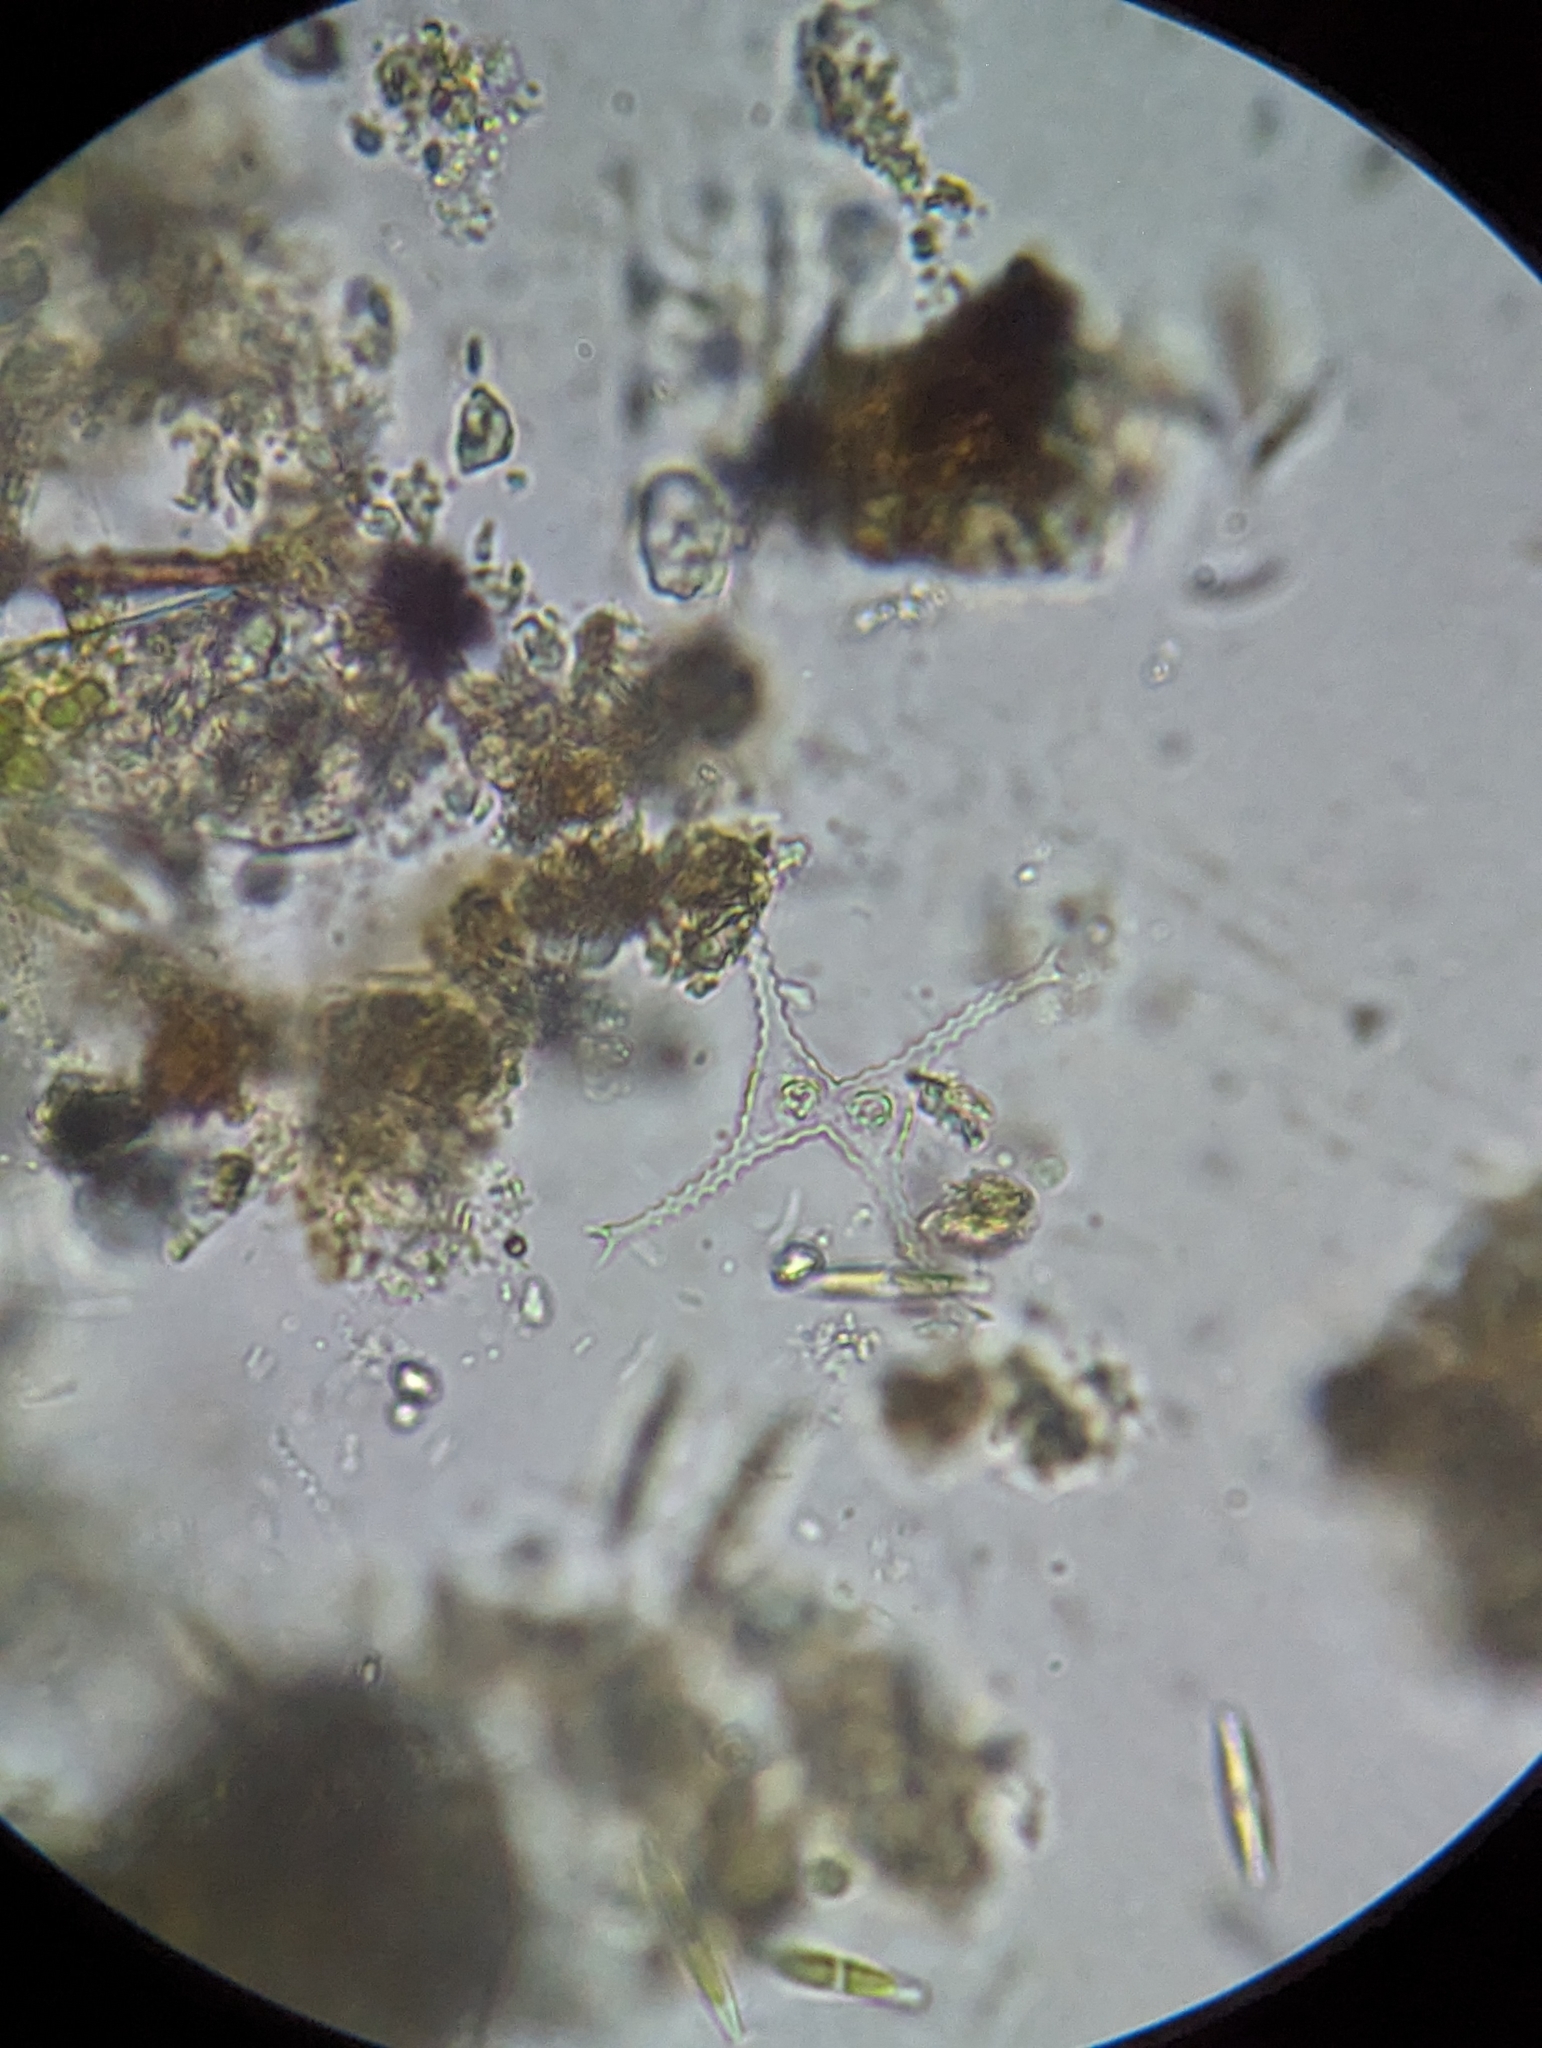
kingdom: Plantae
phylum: Charophyta
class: Conjugatophyceae
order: Desmidiales
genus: Staurastrum
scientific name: Staurastrum tetracerum
